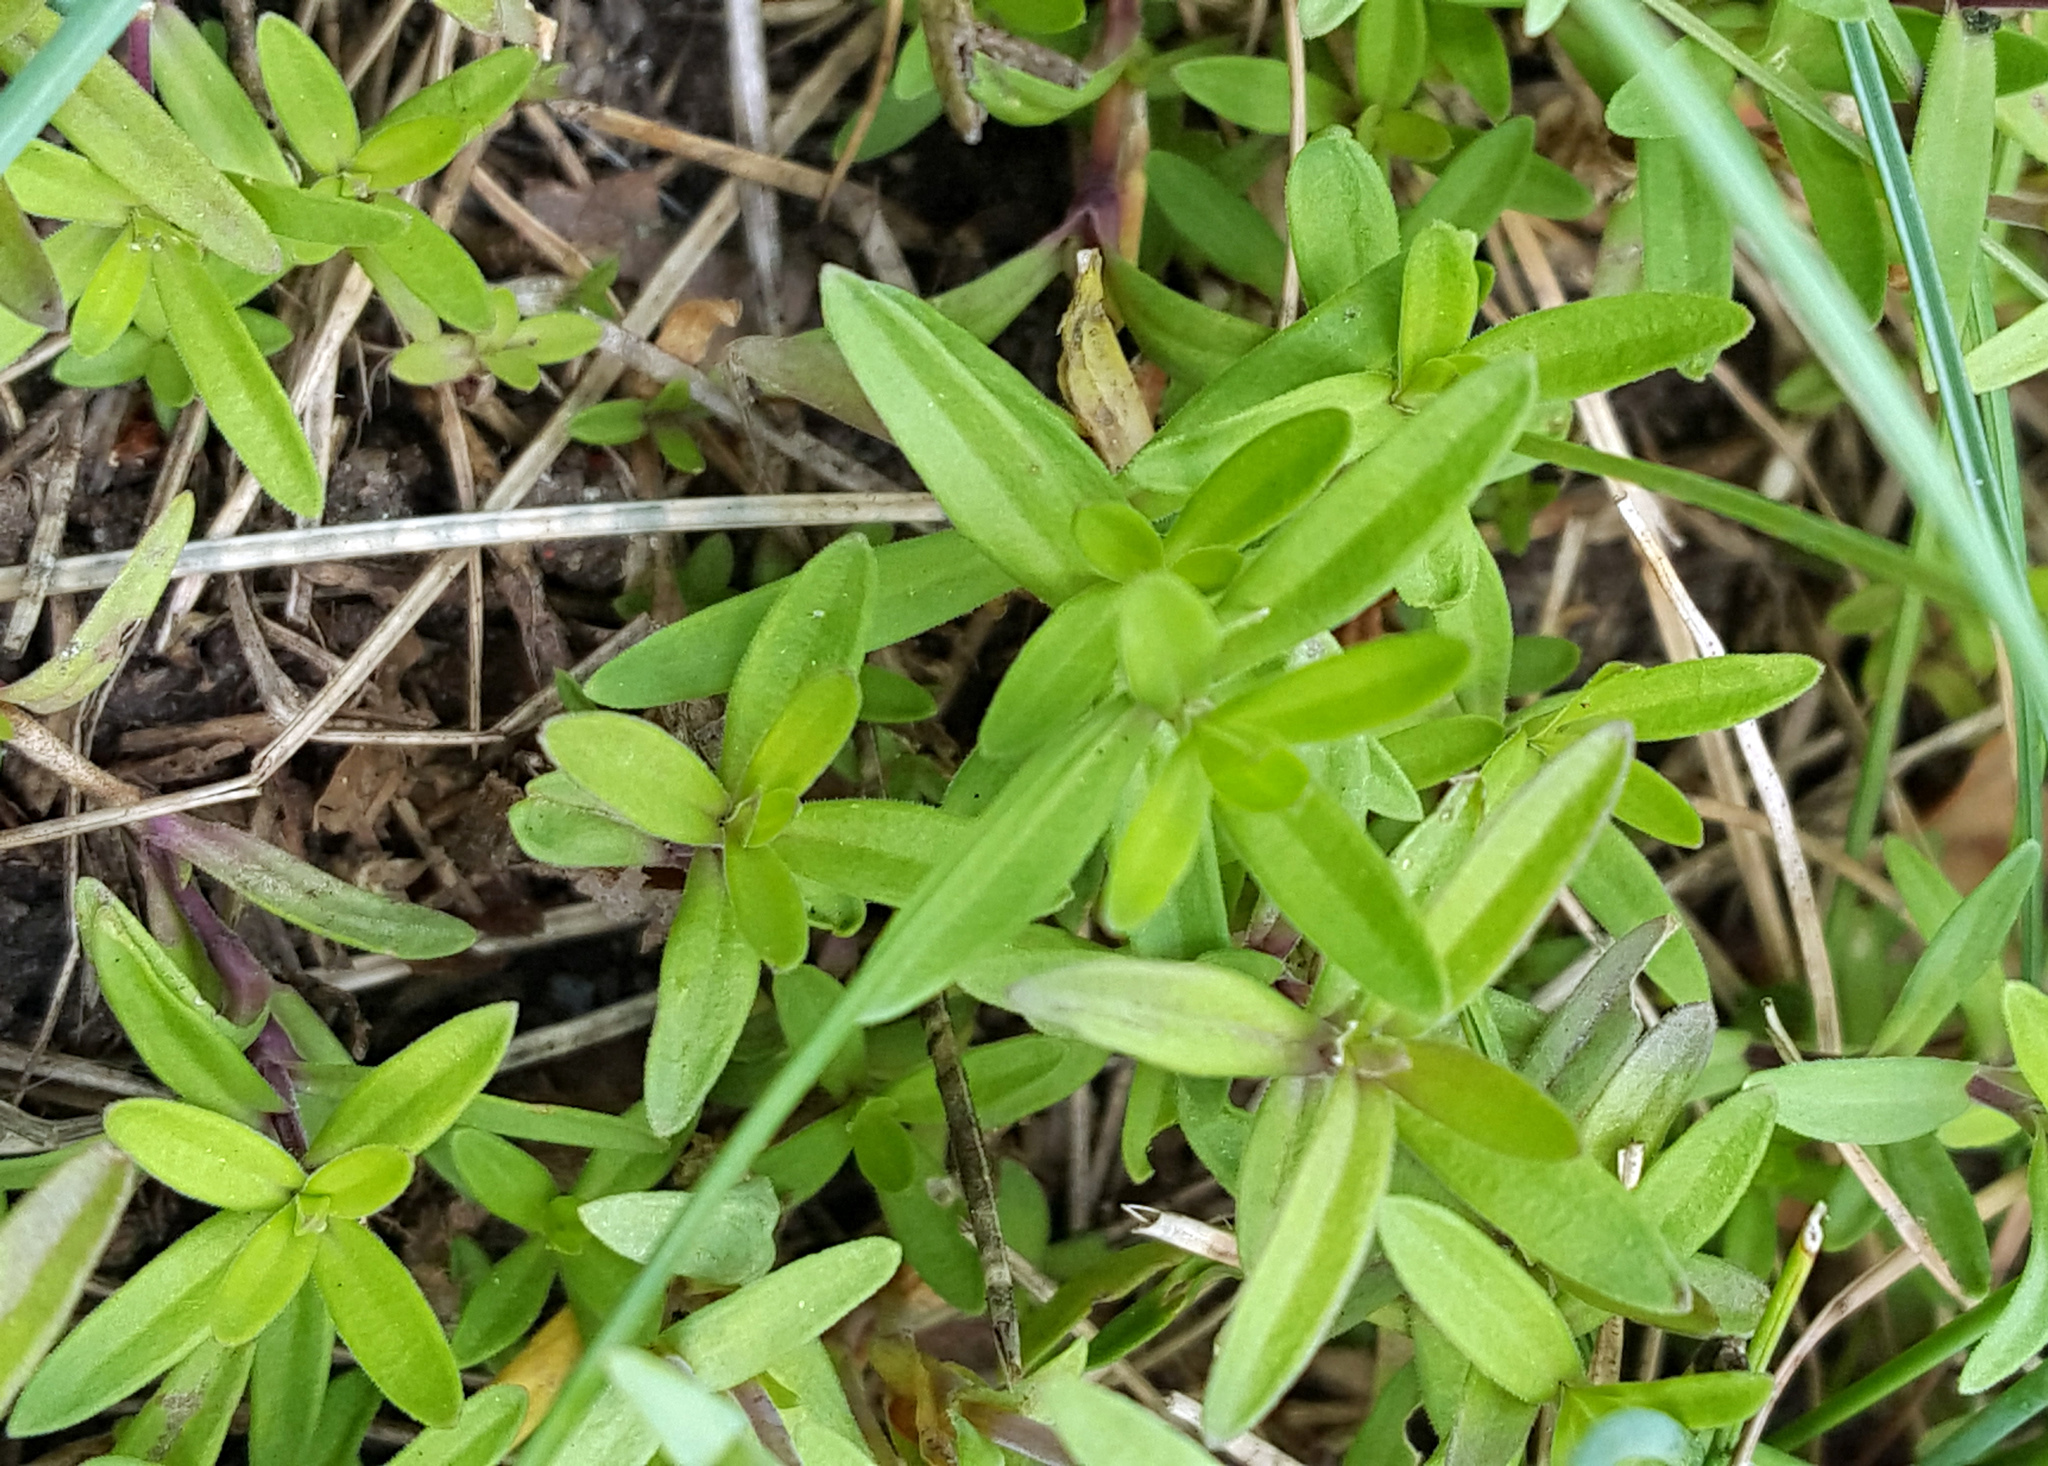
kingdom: Plantae
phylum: Tracheophyta
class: Magnoliopsida
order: Caryophyllales
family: Caryophyllaceae
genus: Dianthus
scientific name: Dianthus deltoides
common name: Maiden pink
